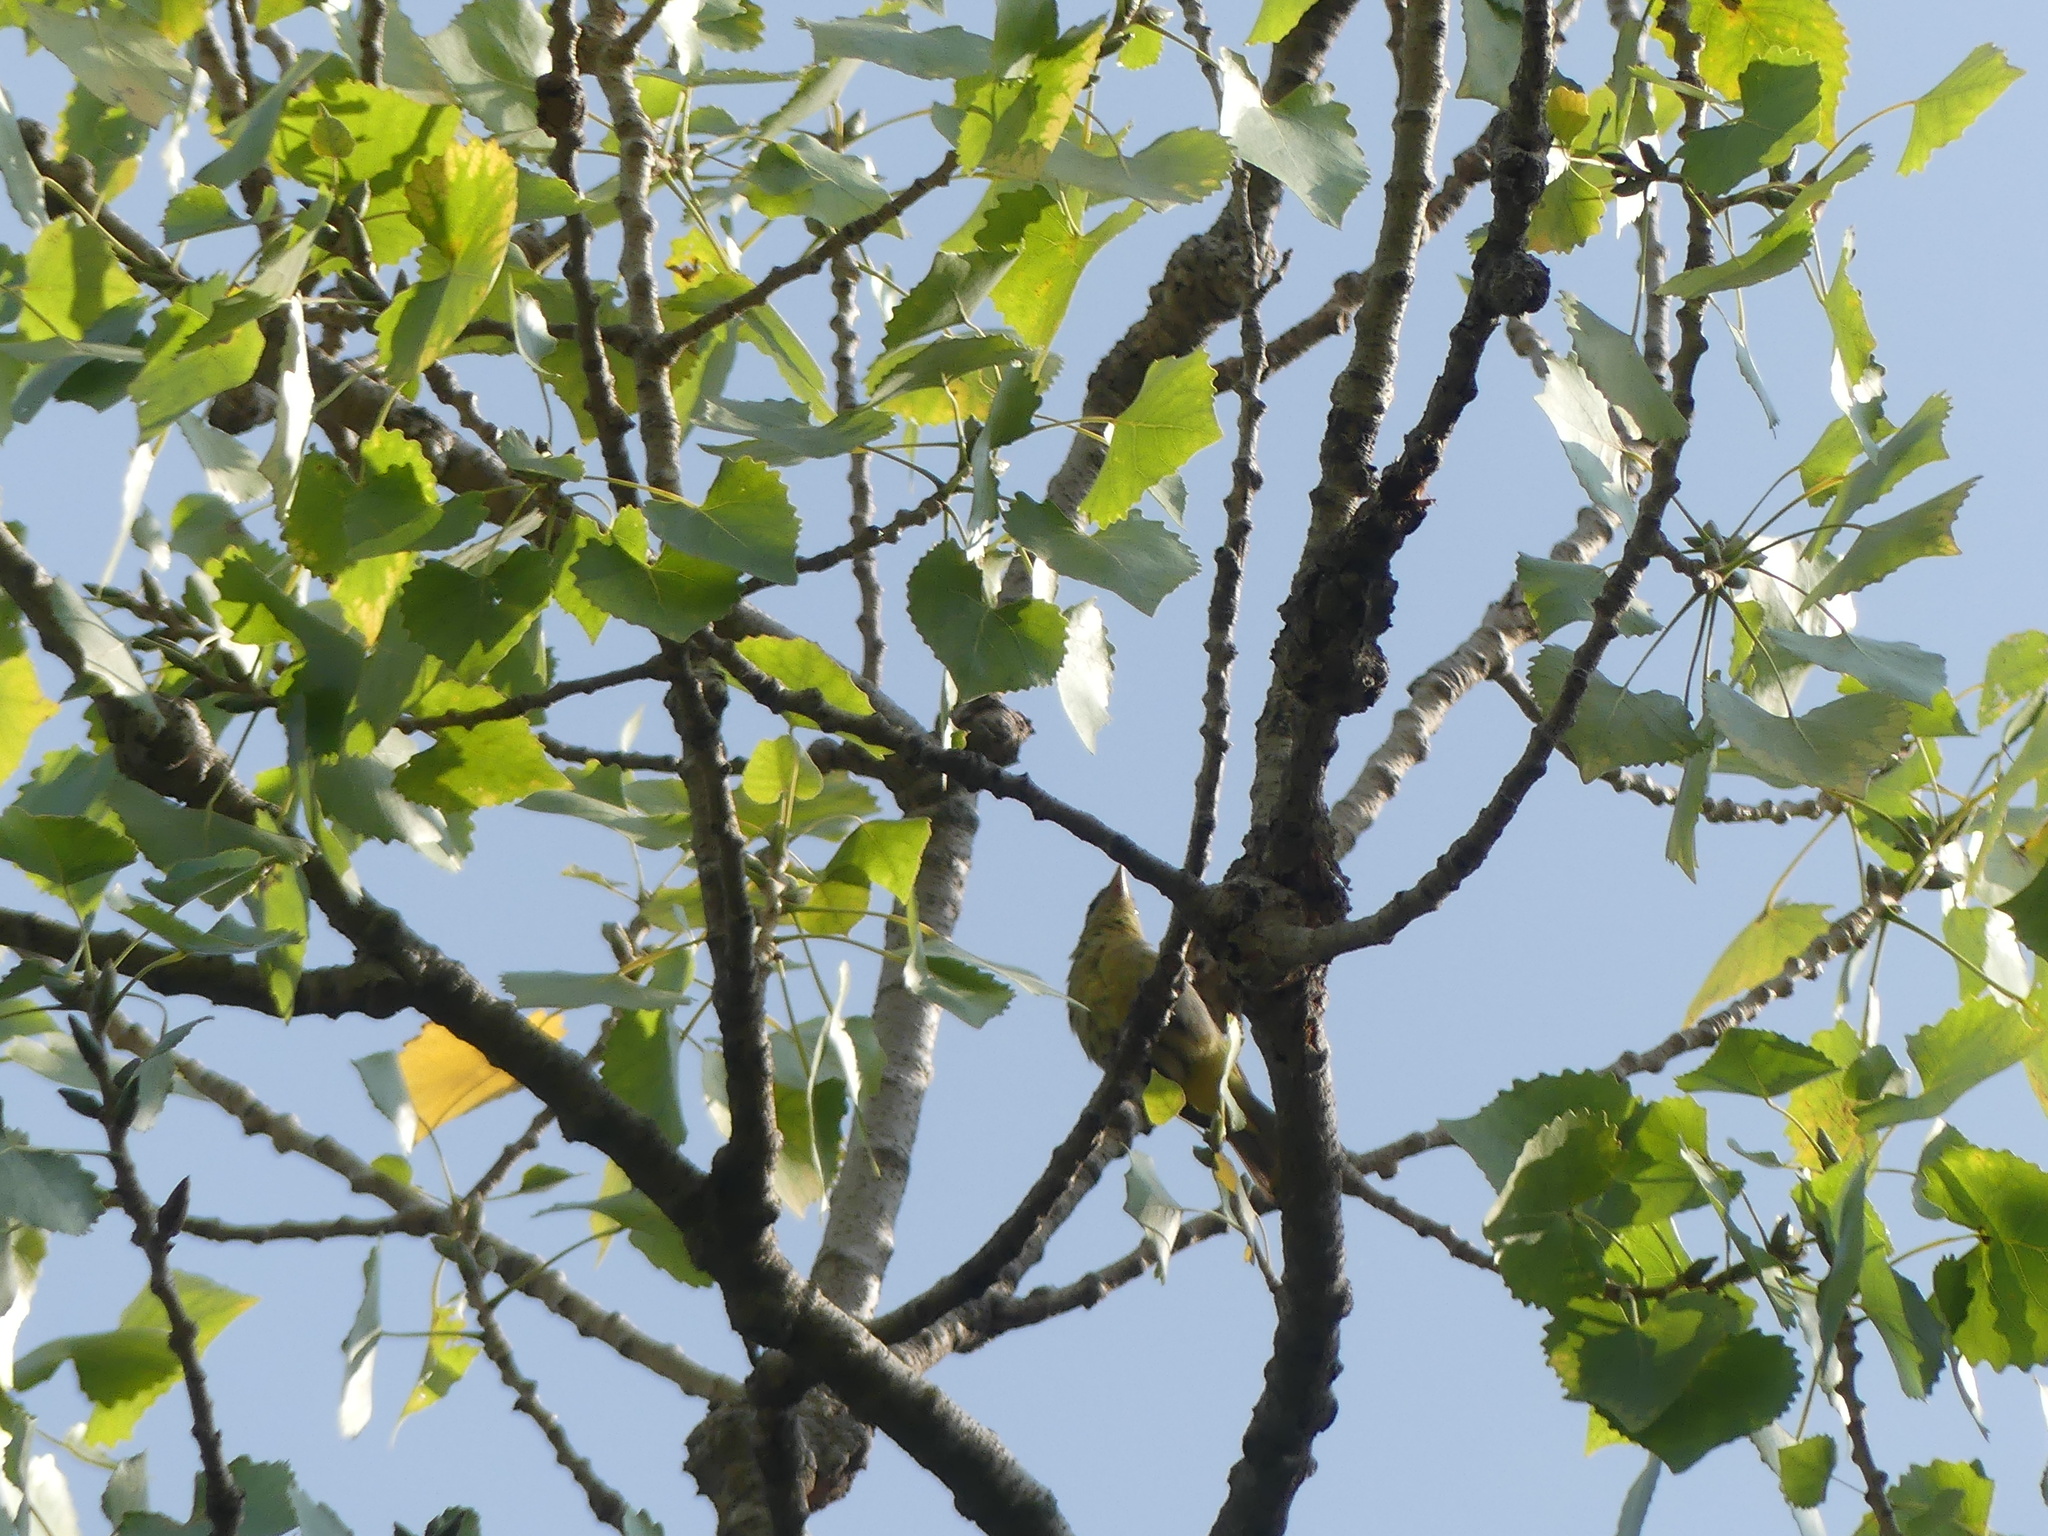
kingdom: Animalia
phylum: Chordata
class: Aves
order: Passeriformes
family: Cardinalidae
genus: Piranga
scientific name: Piranga ludoviciana
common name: Western tanager
